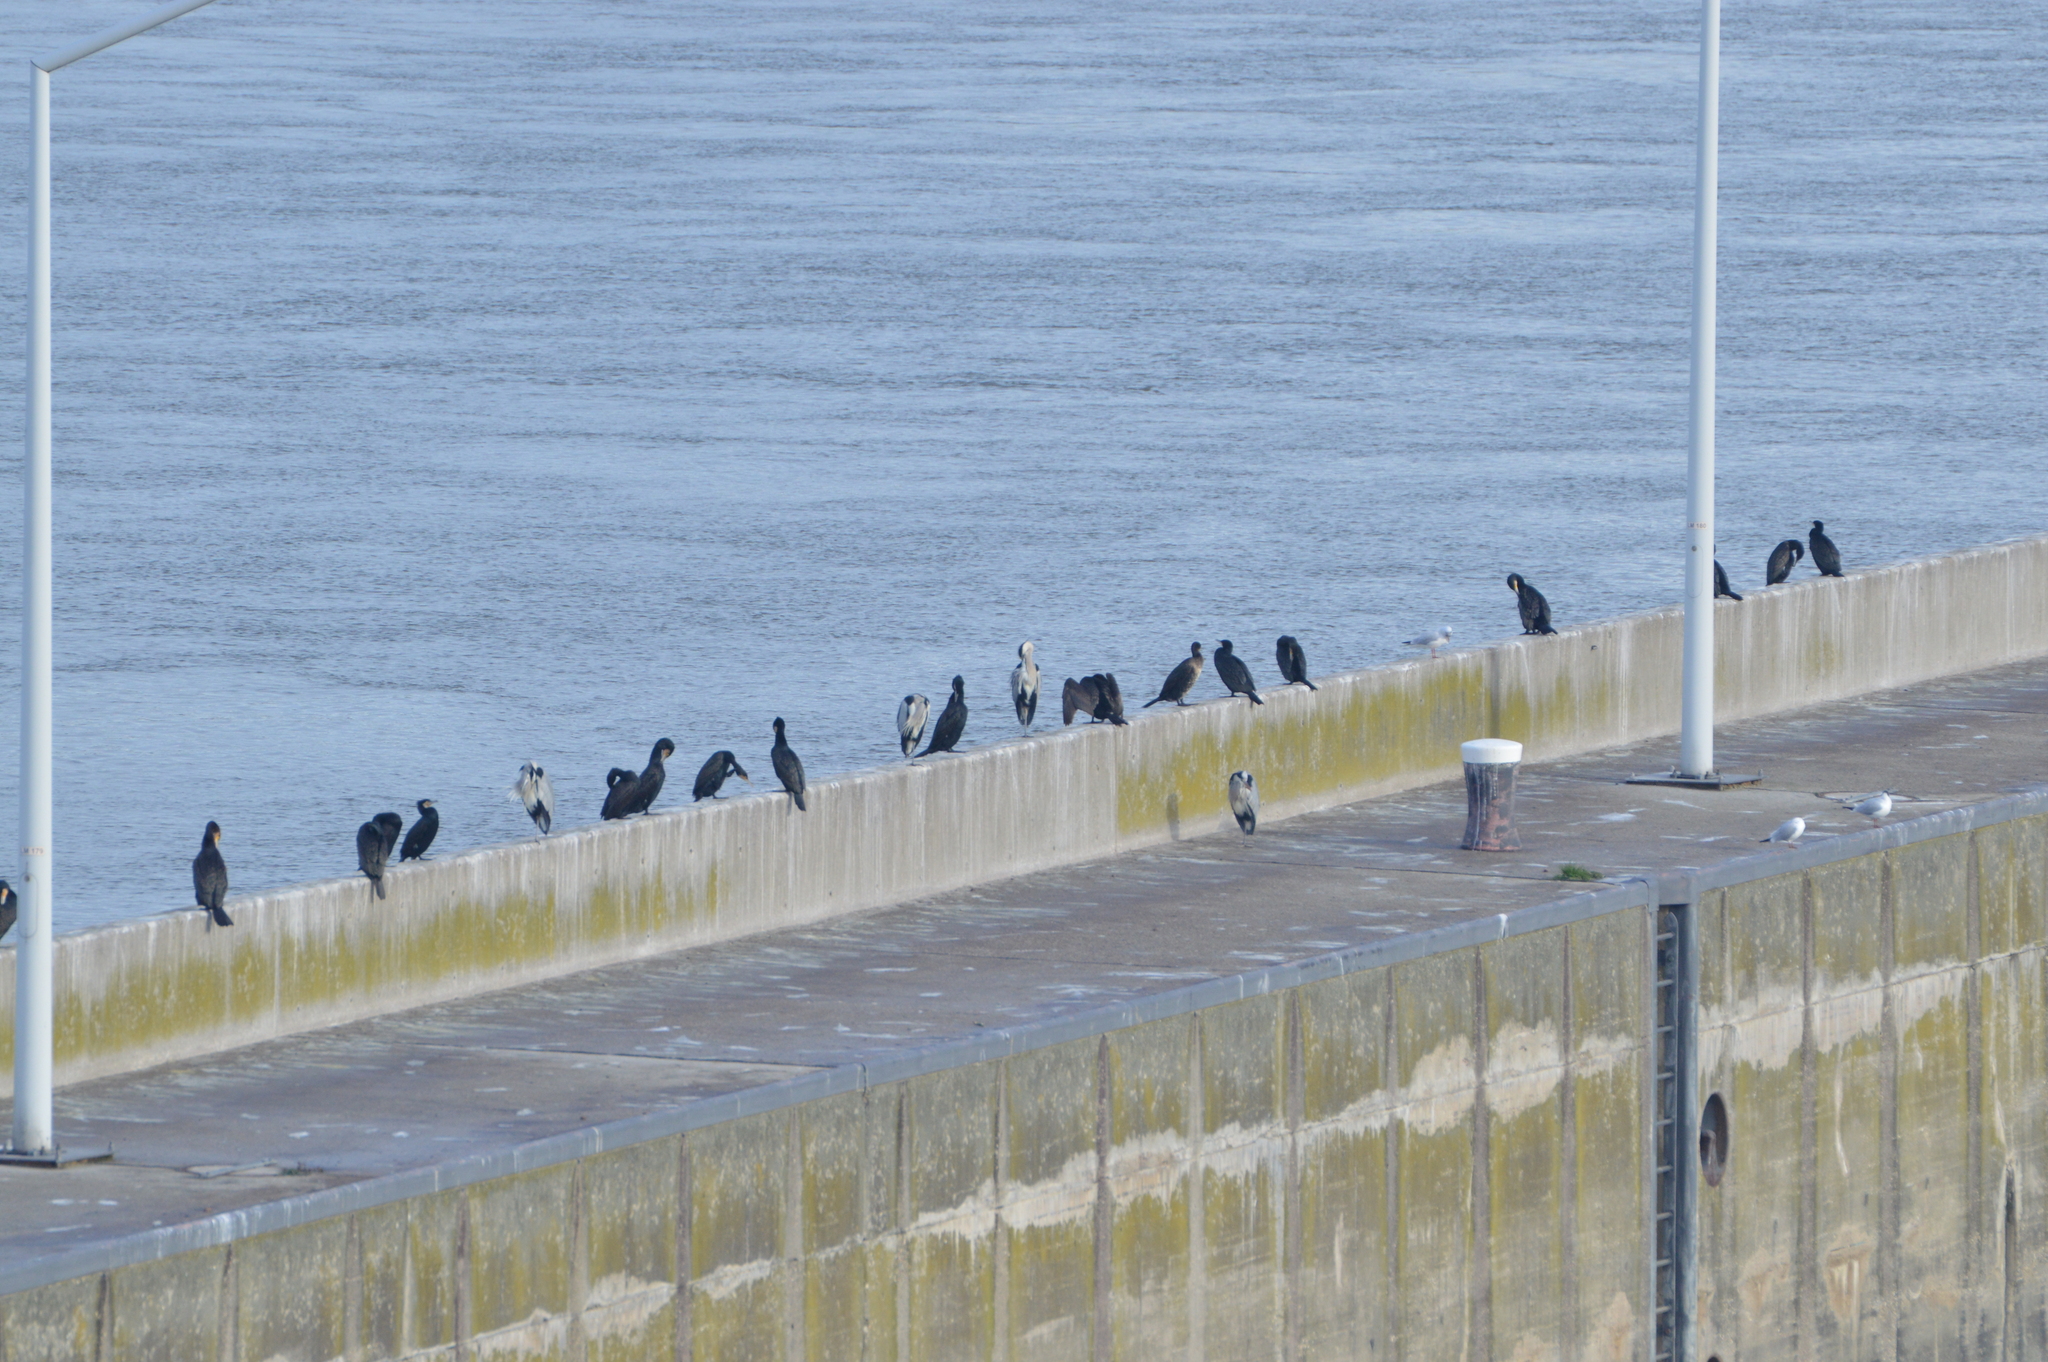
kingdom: Animalia
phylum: Chordata
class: Aves
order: Suliformes
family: Phalacrocoracidae
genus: Phalacrocorax
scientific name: Phalacrocorax carbo
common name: Great cormorant
